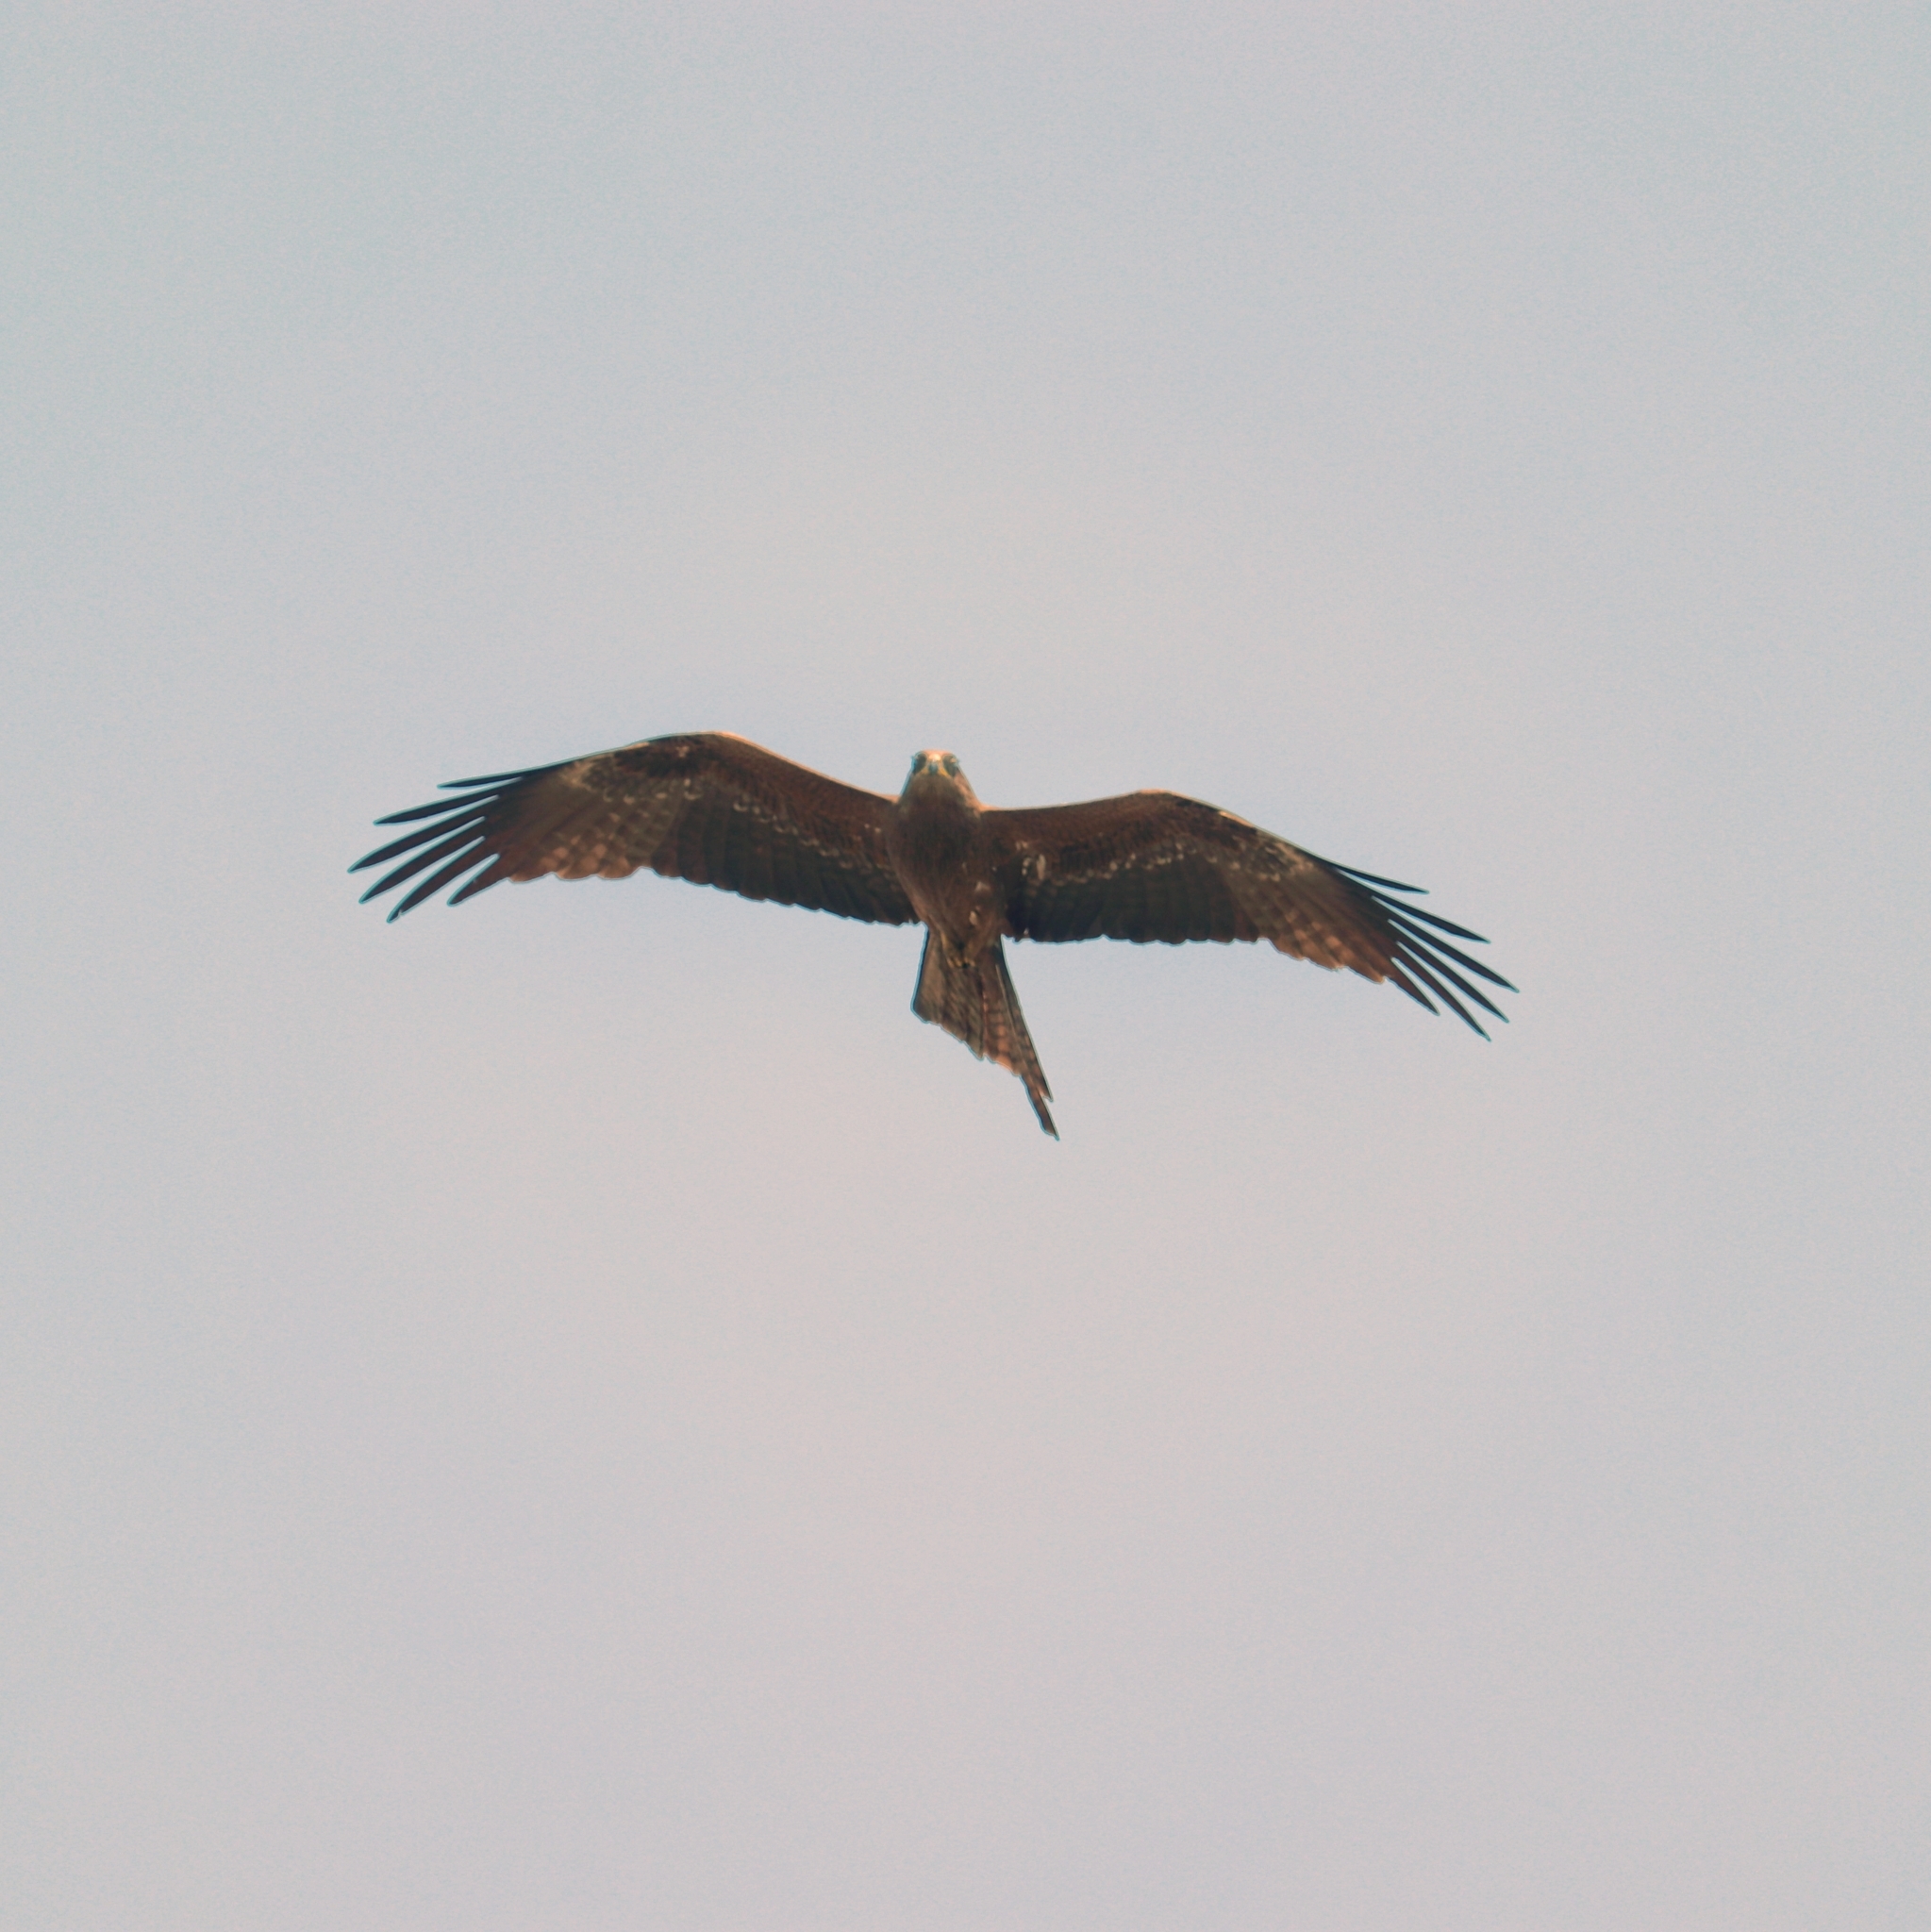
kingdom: Animalia
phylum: Chordata
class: Aves
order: Accipitriformes
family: Accipitridae
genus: Milvus
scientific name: Milvus migrans
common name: Black kite
